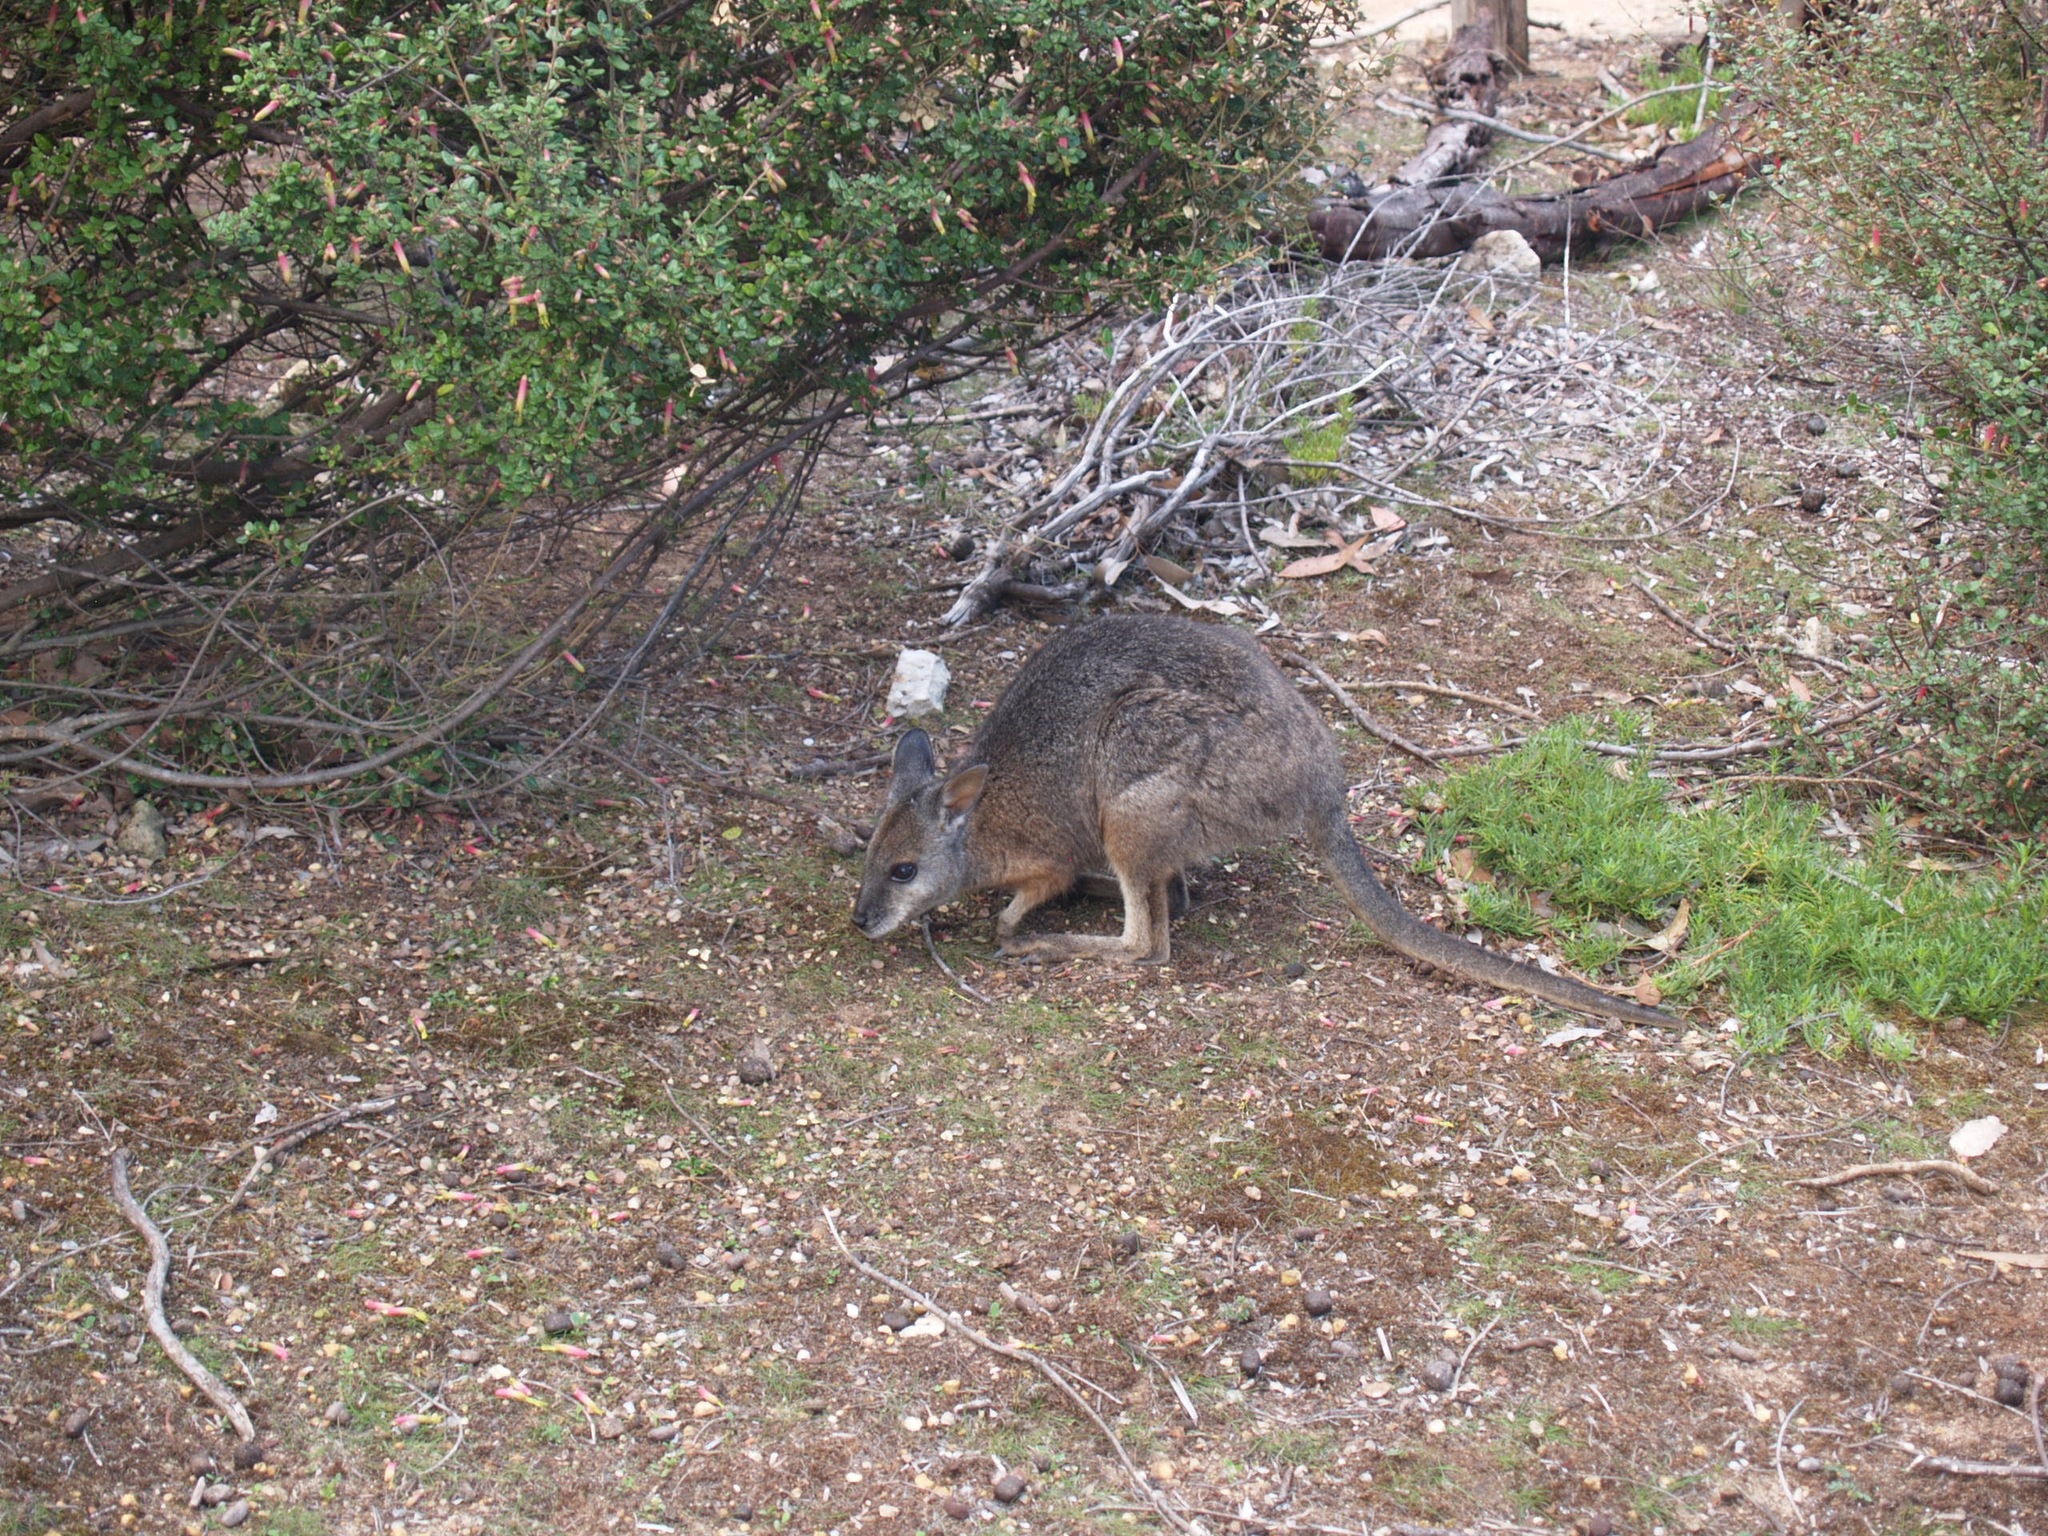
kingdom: Animalia
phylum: Chordata
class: Mammalia
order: Diprotodontia
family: Macropodidae
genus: Macropus
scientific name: Macropus eugenii
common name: Tammar wallaby
